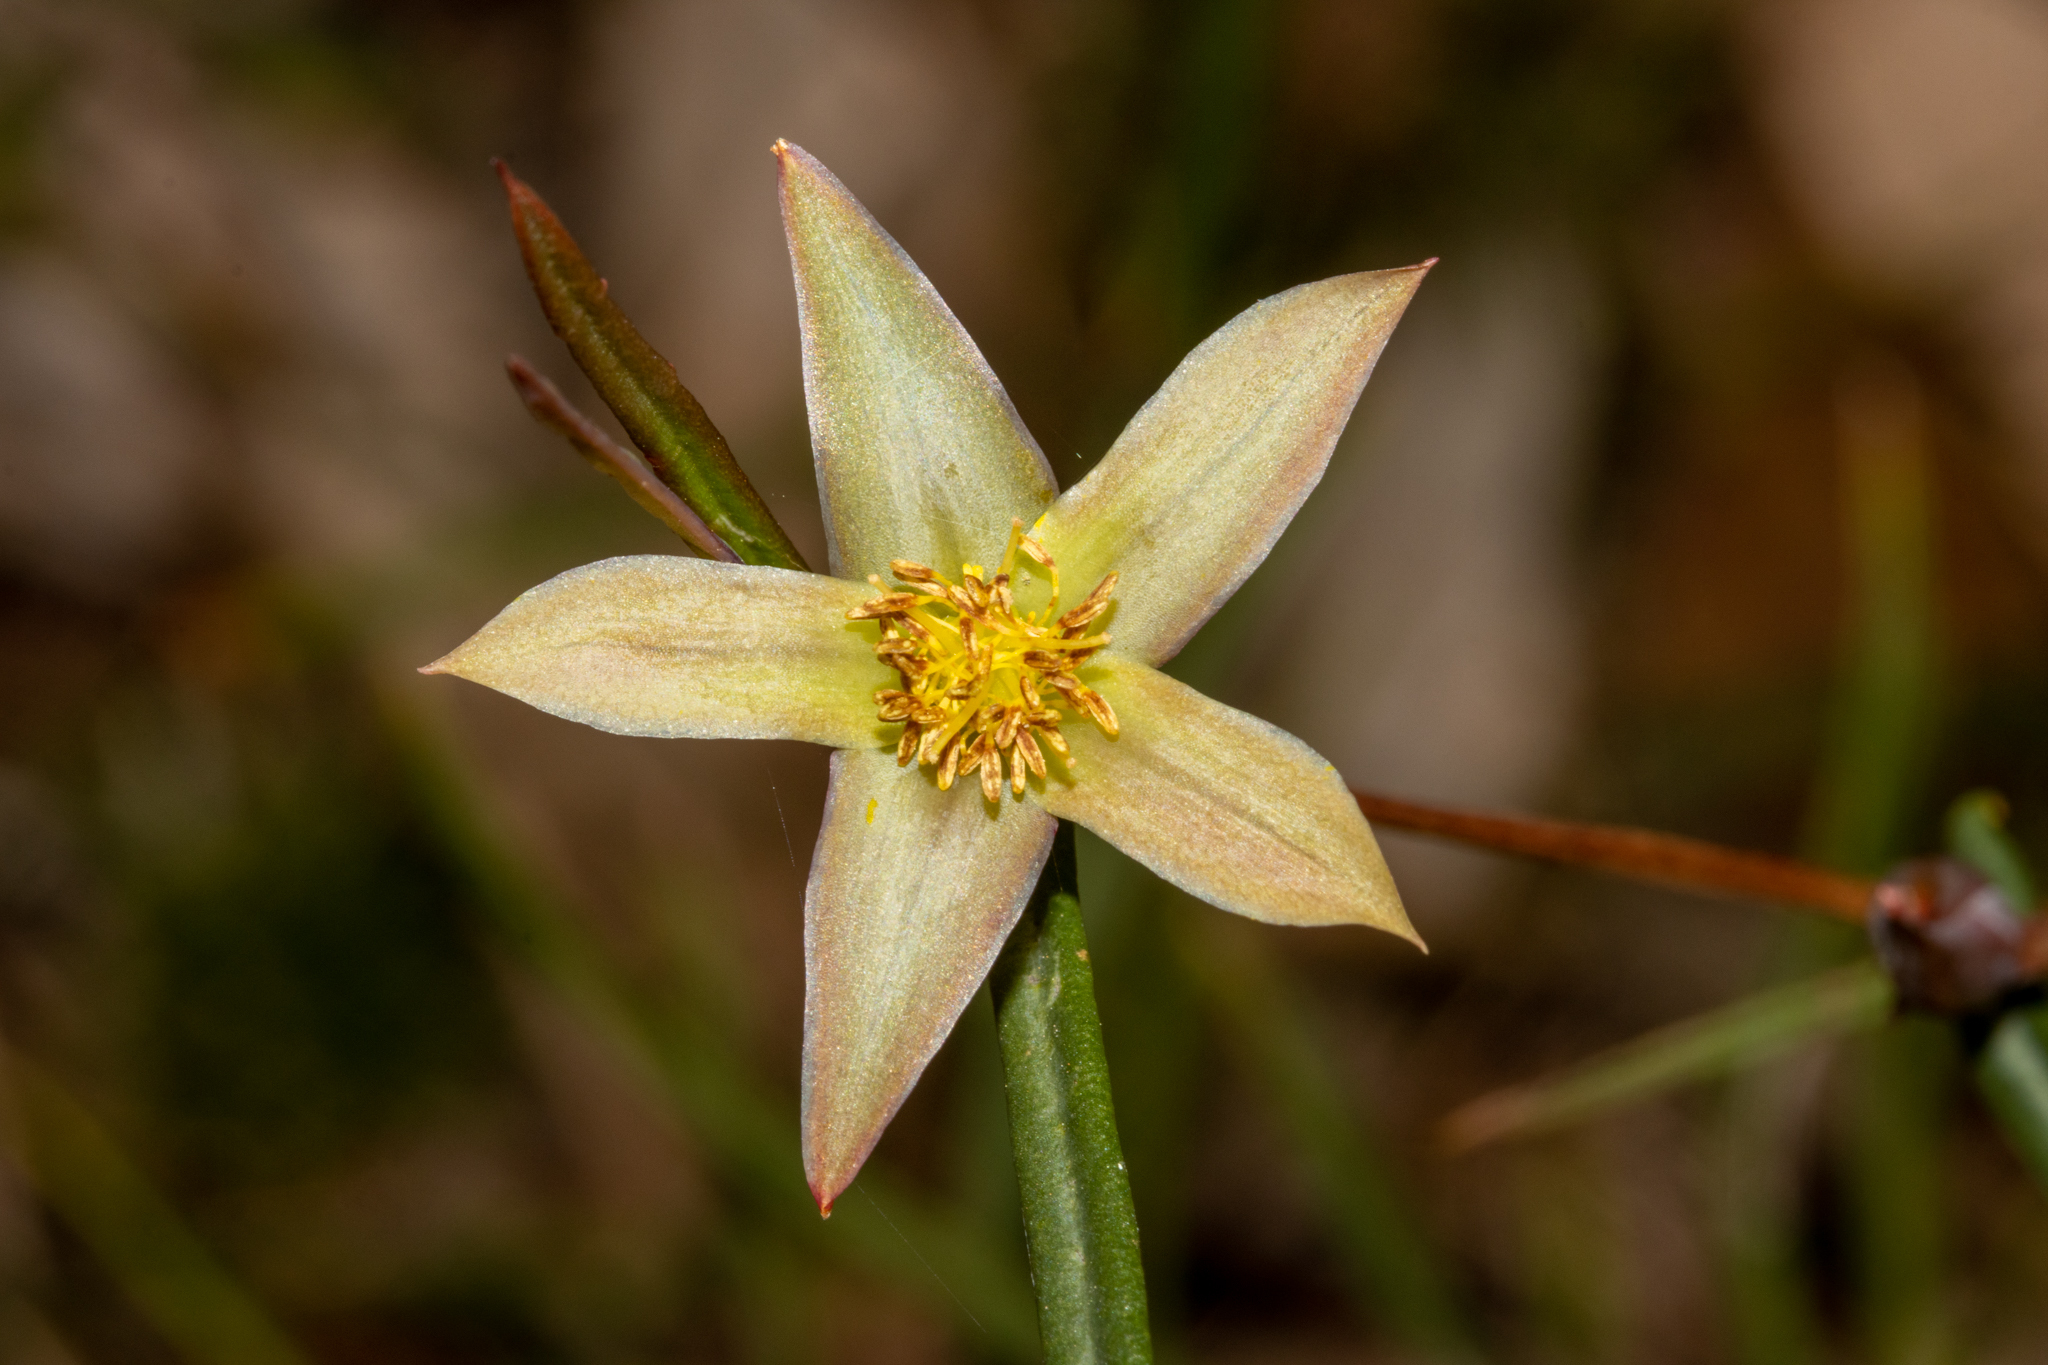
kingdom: Plantae
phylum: Tracheophyta
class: Magnoliopsida
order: Dilleniales
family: Dilleniaceae
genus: Hibbertia
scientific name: Hibbertia cunninghamii
